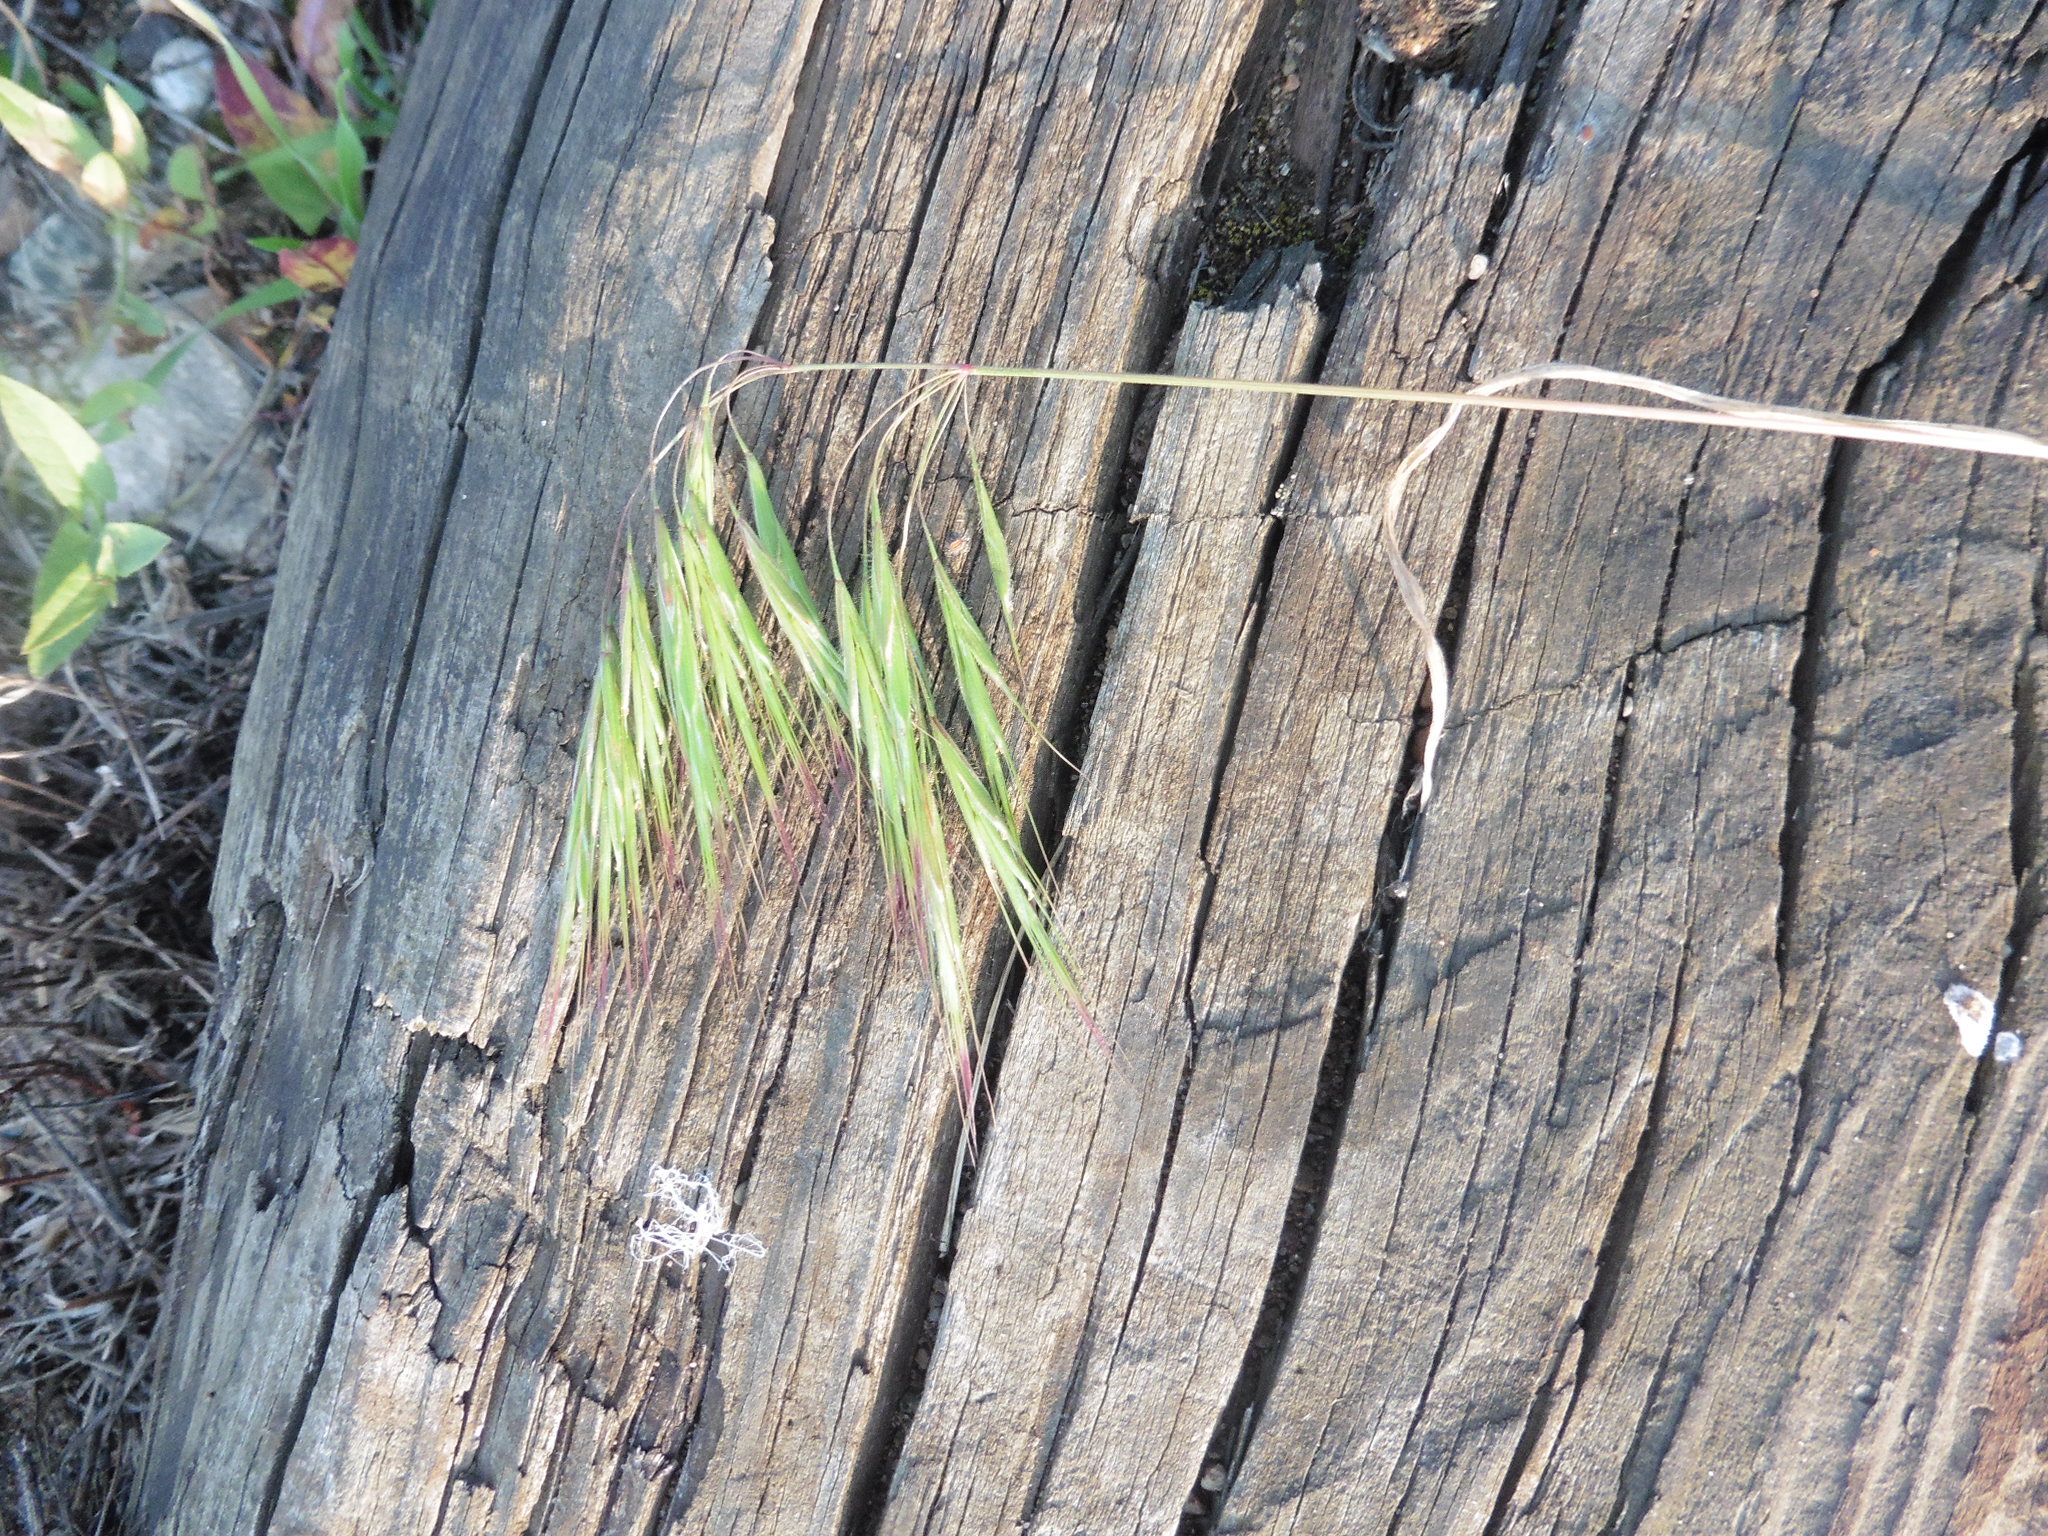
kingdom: Plantae
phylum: Tracheophyta
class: Liliopsida
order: Poales
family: Poaceae
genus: Bromus
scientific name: Bromus tectorum
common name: Cheatgrass
